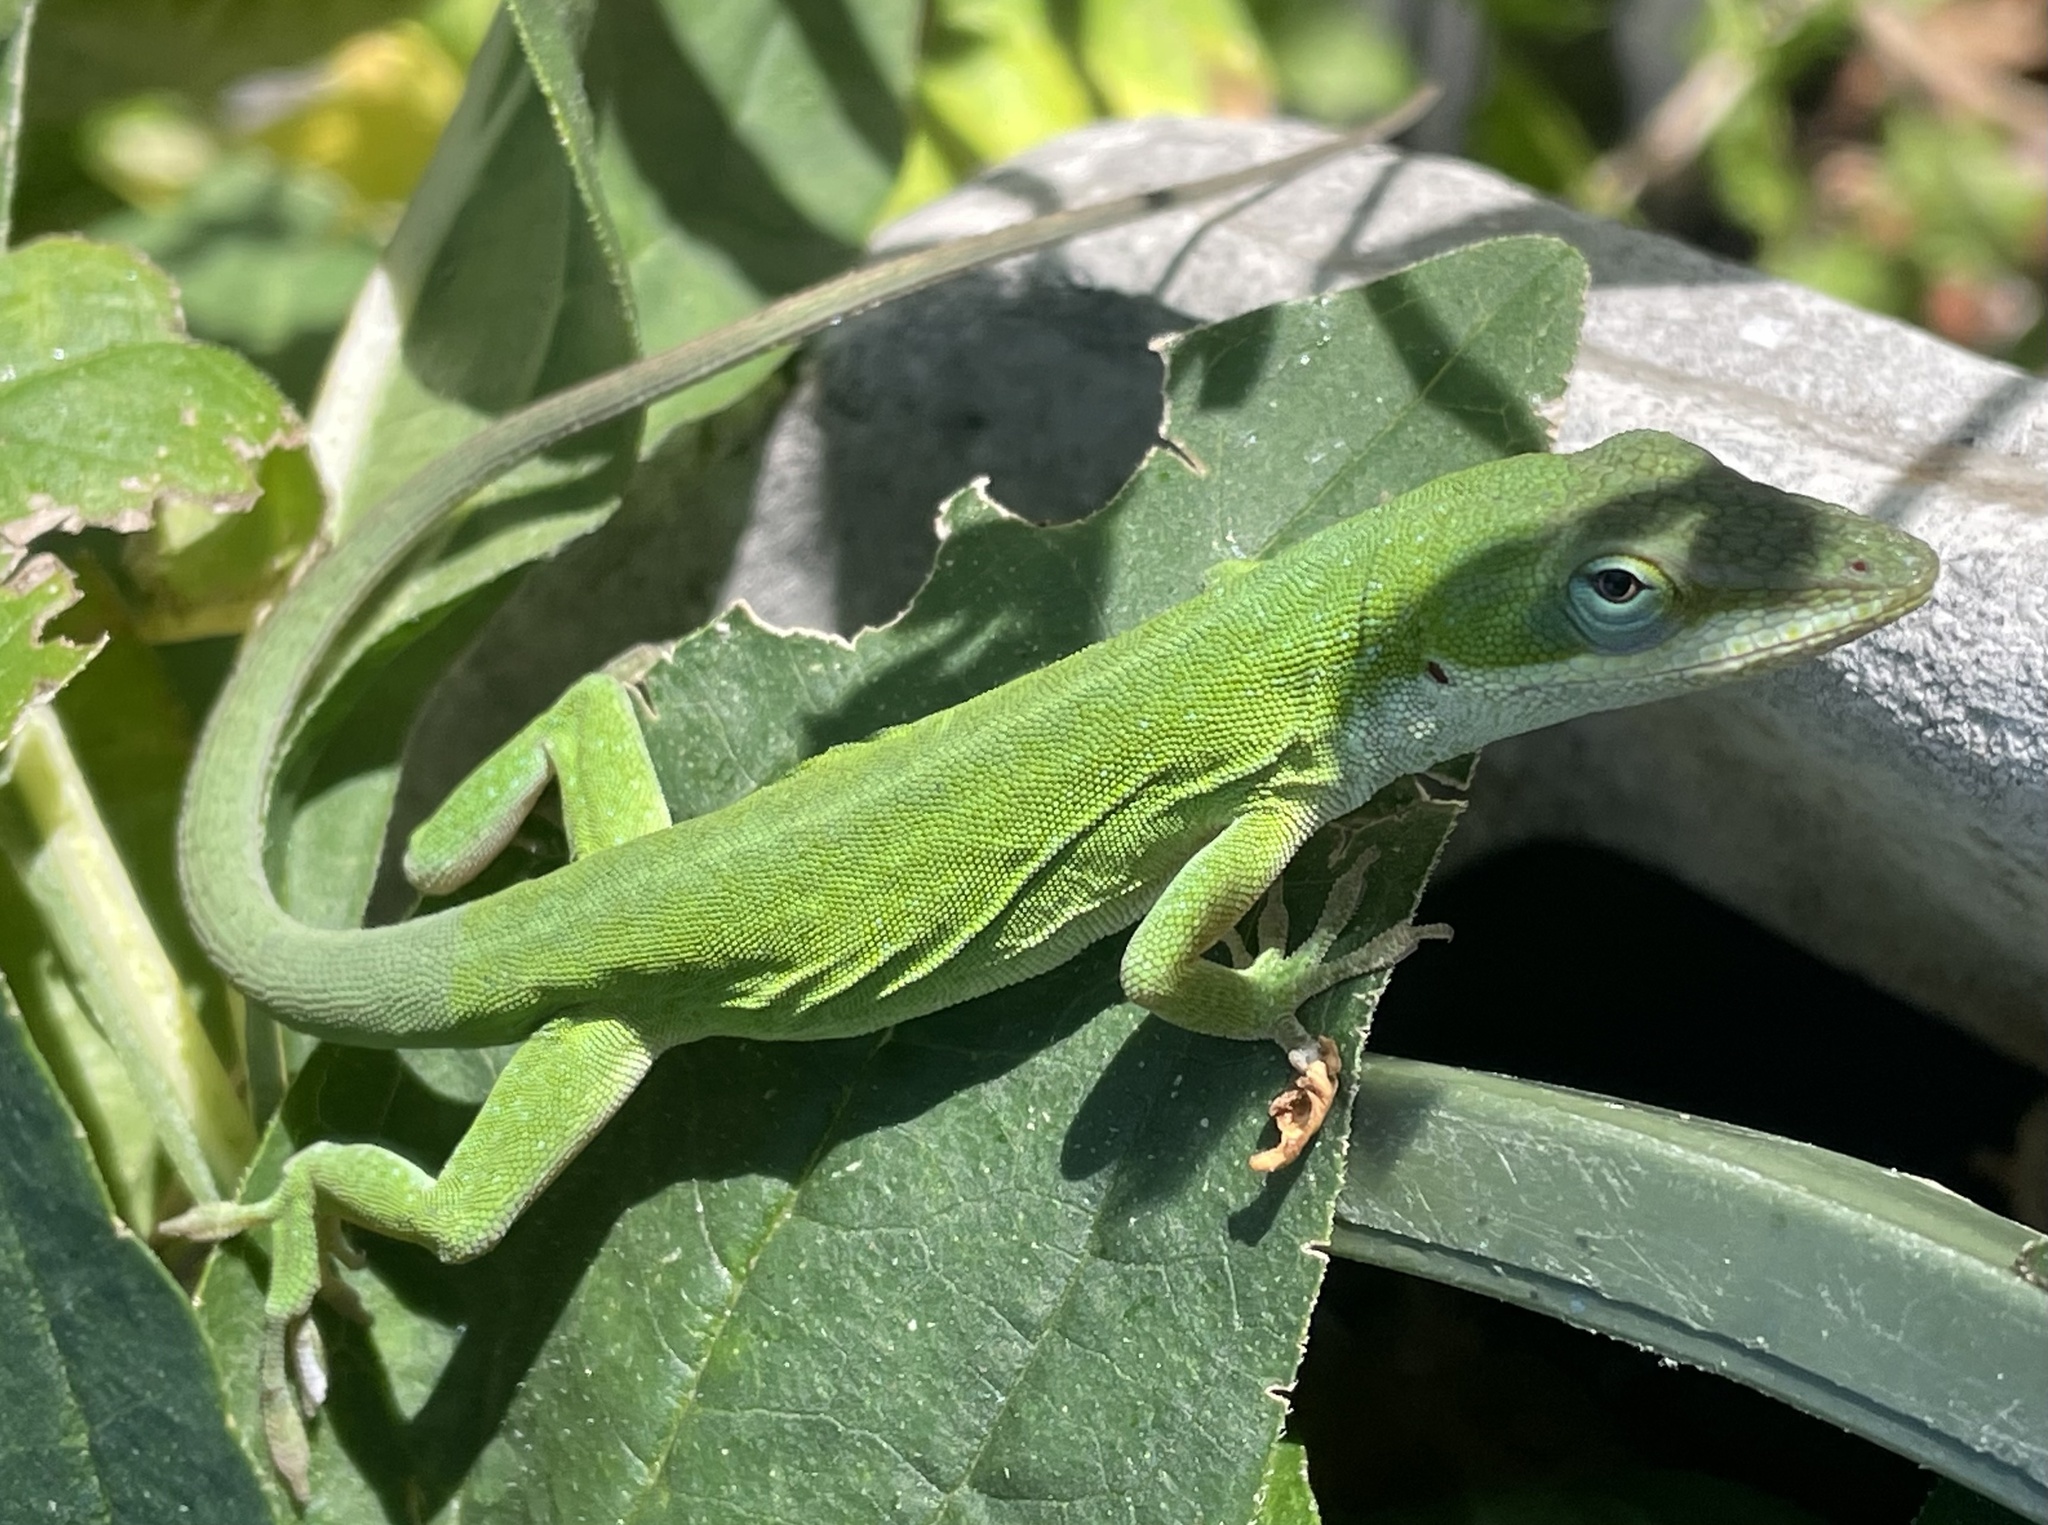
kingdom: Animalia
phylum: Chordata
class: Squamata
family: Dactyloidae
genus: Anolis
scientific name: Anolis carolinensis
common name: Green anole
